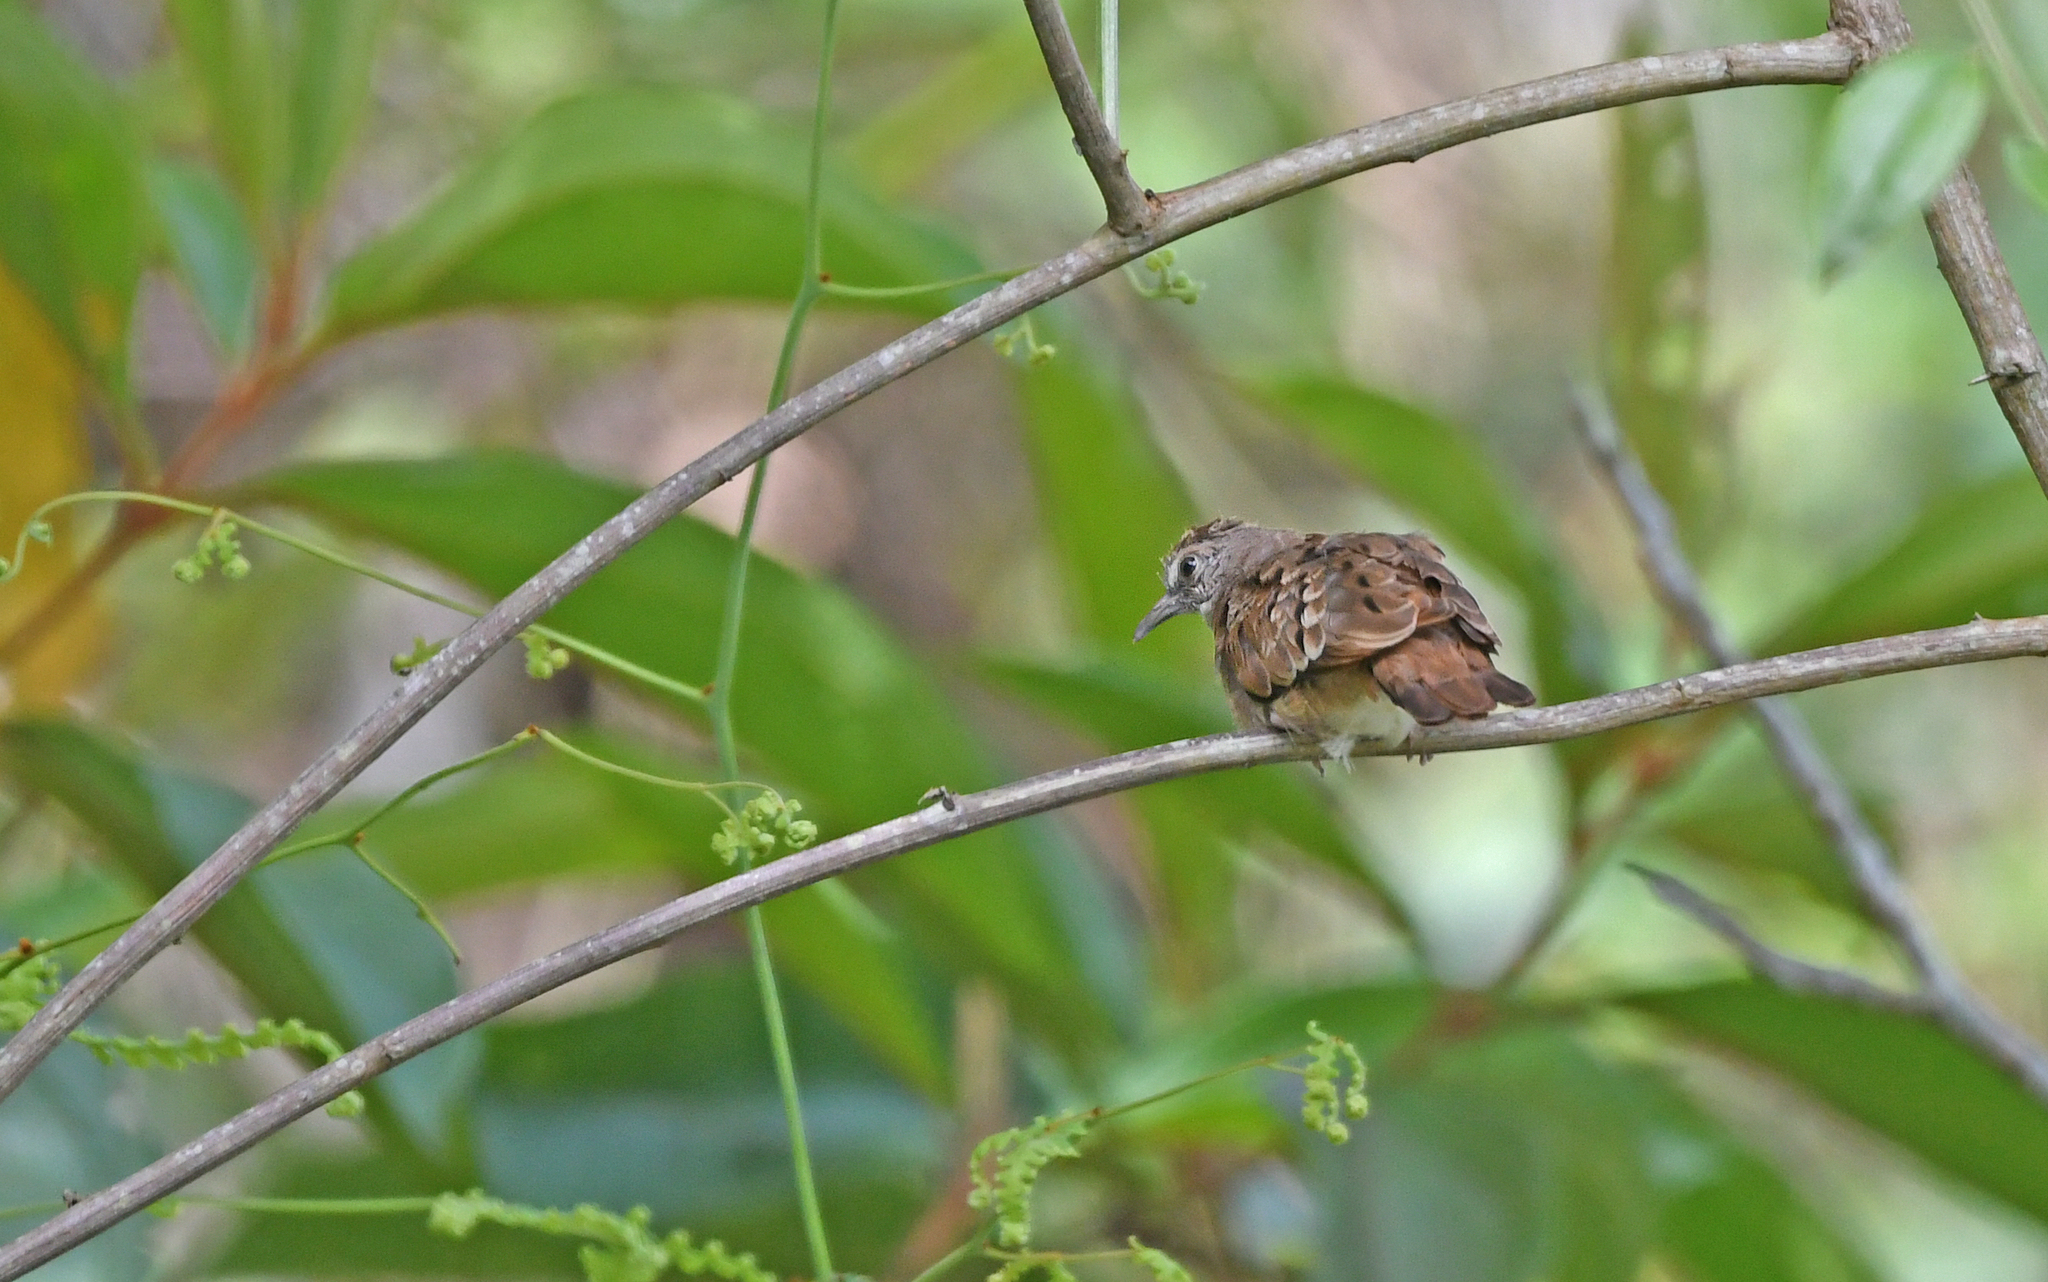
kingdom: Animalia
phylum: Chordata
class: Aves
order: Columbiformes
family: Columbidae
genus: Columbina
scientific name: Columbina talpacoti
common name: Ruddy ground dove
